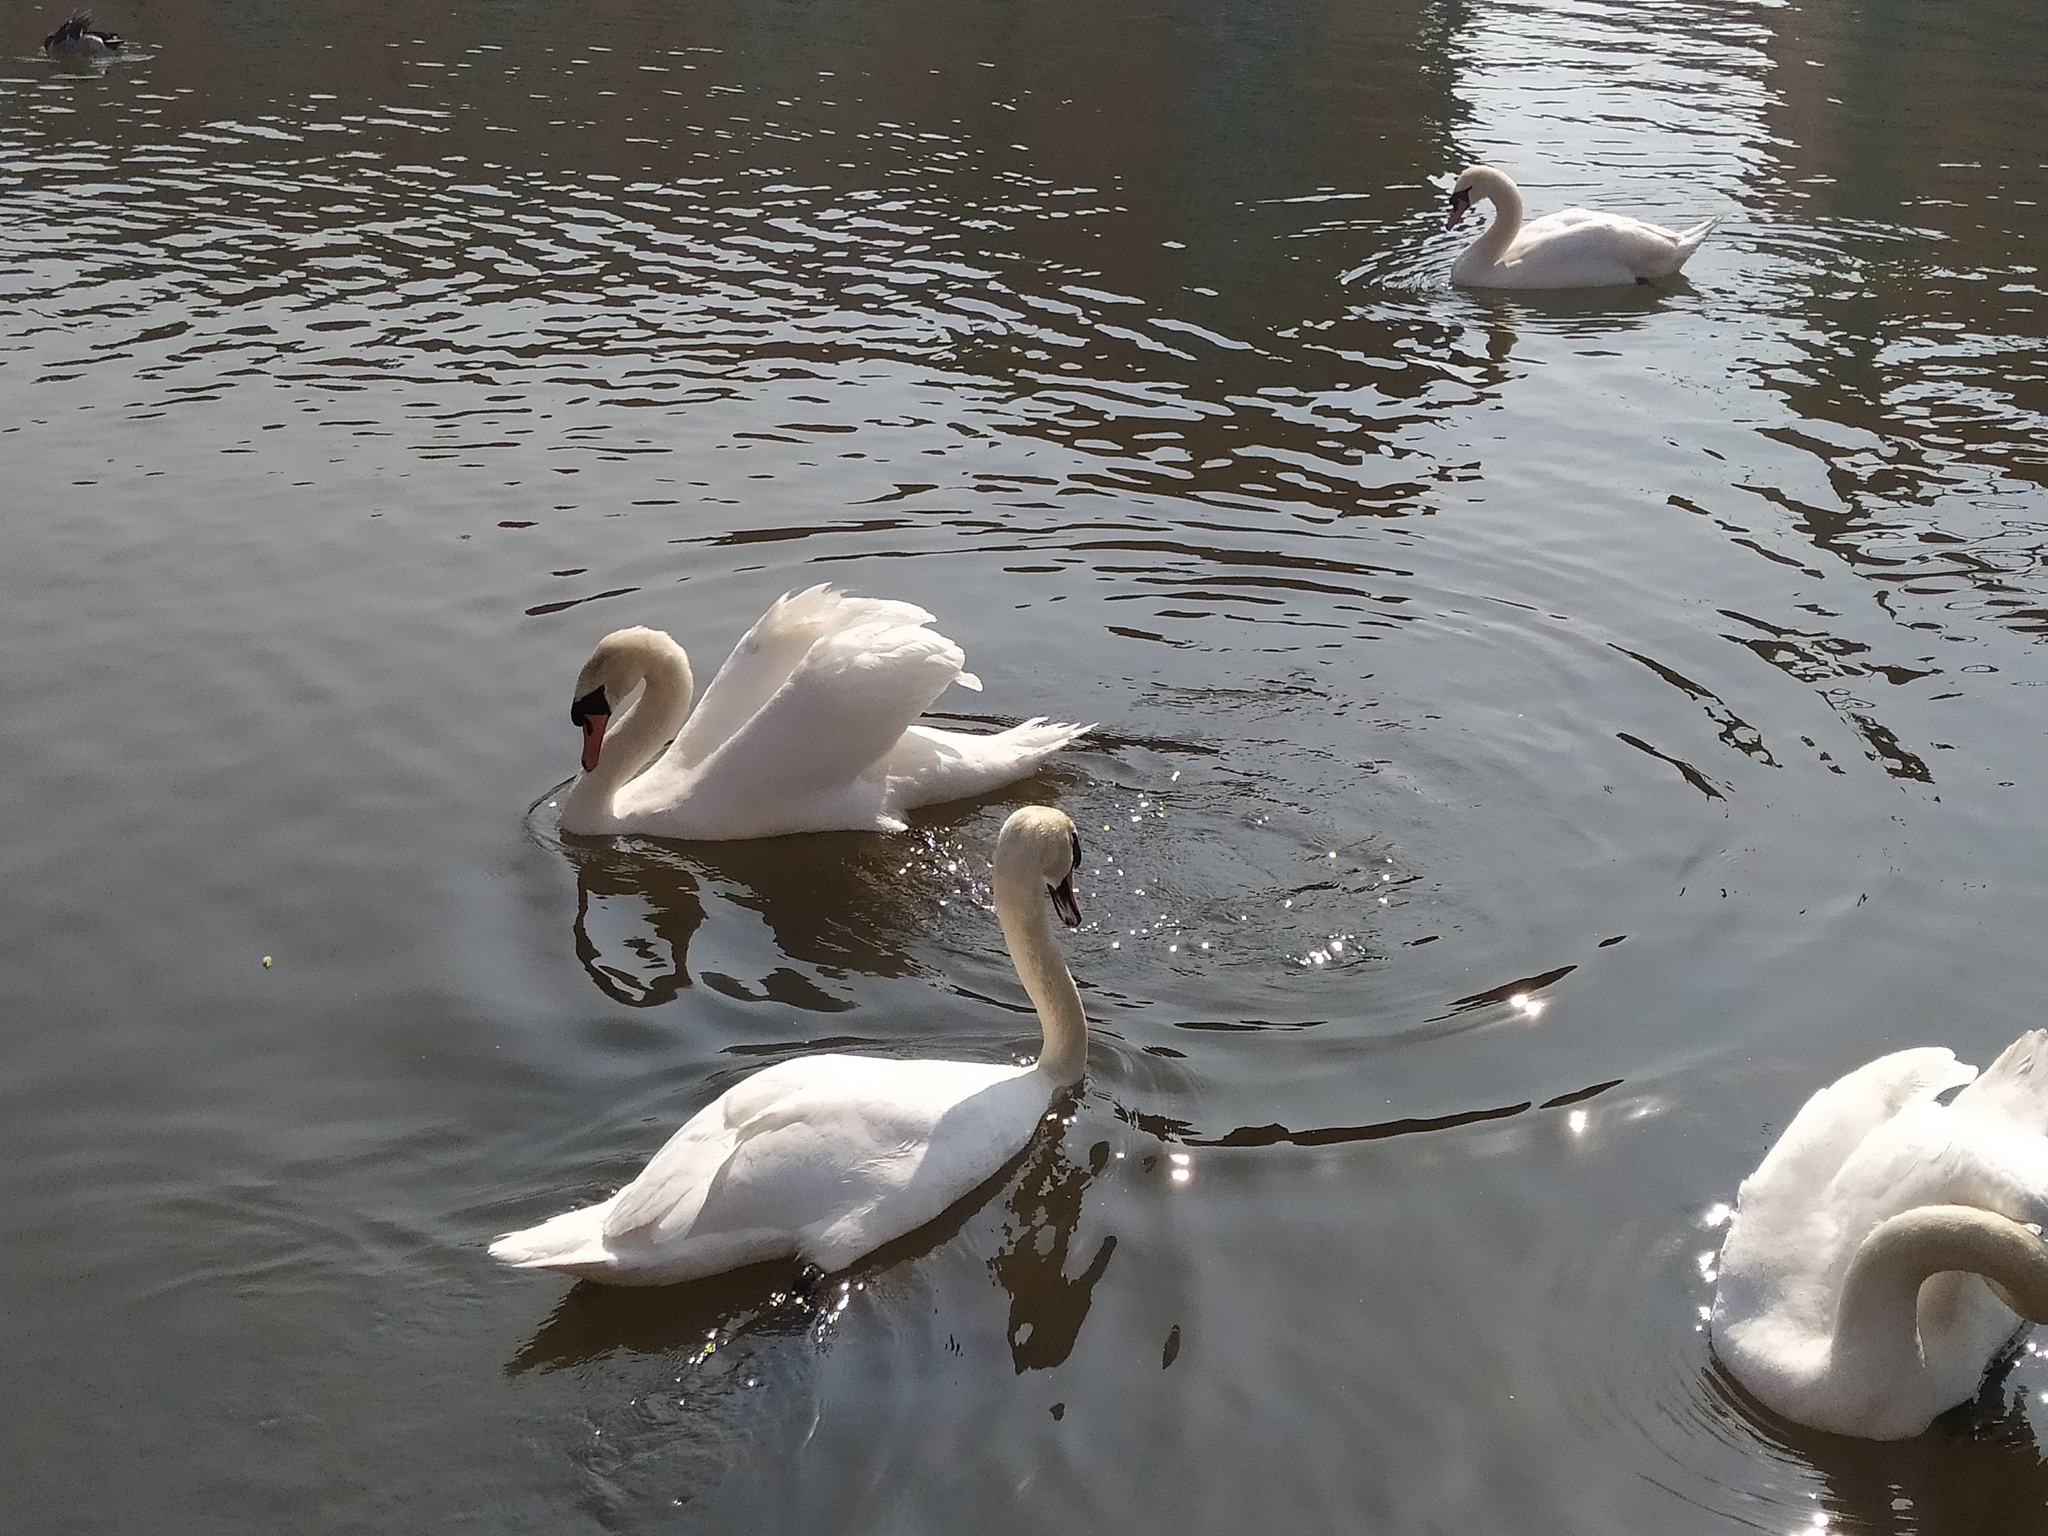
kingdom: Animalia
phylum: Chordata
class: Aves
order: Anseriformes
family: Anatidae
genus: Cygnus
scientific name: Cygnus olor
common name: Mute swan
